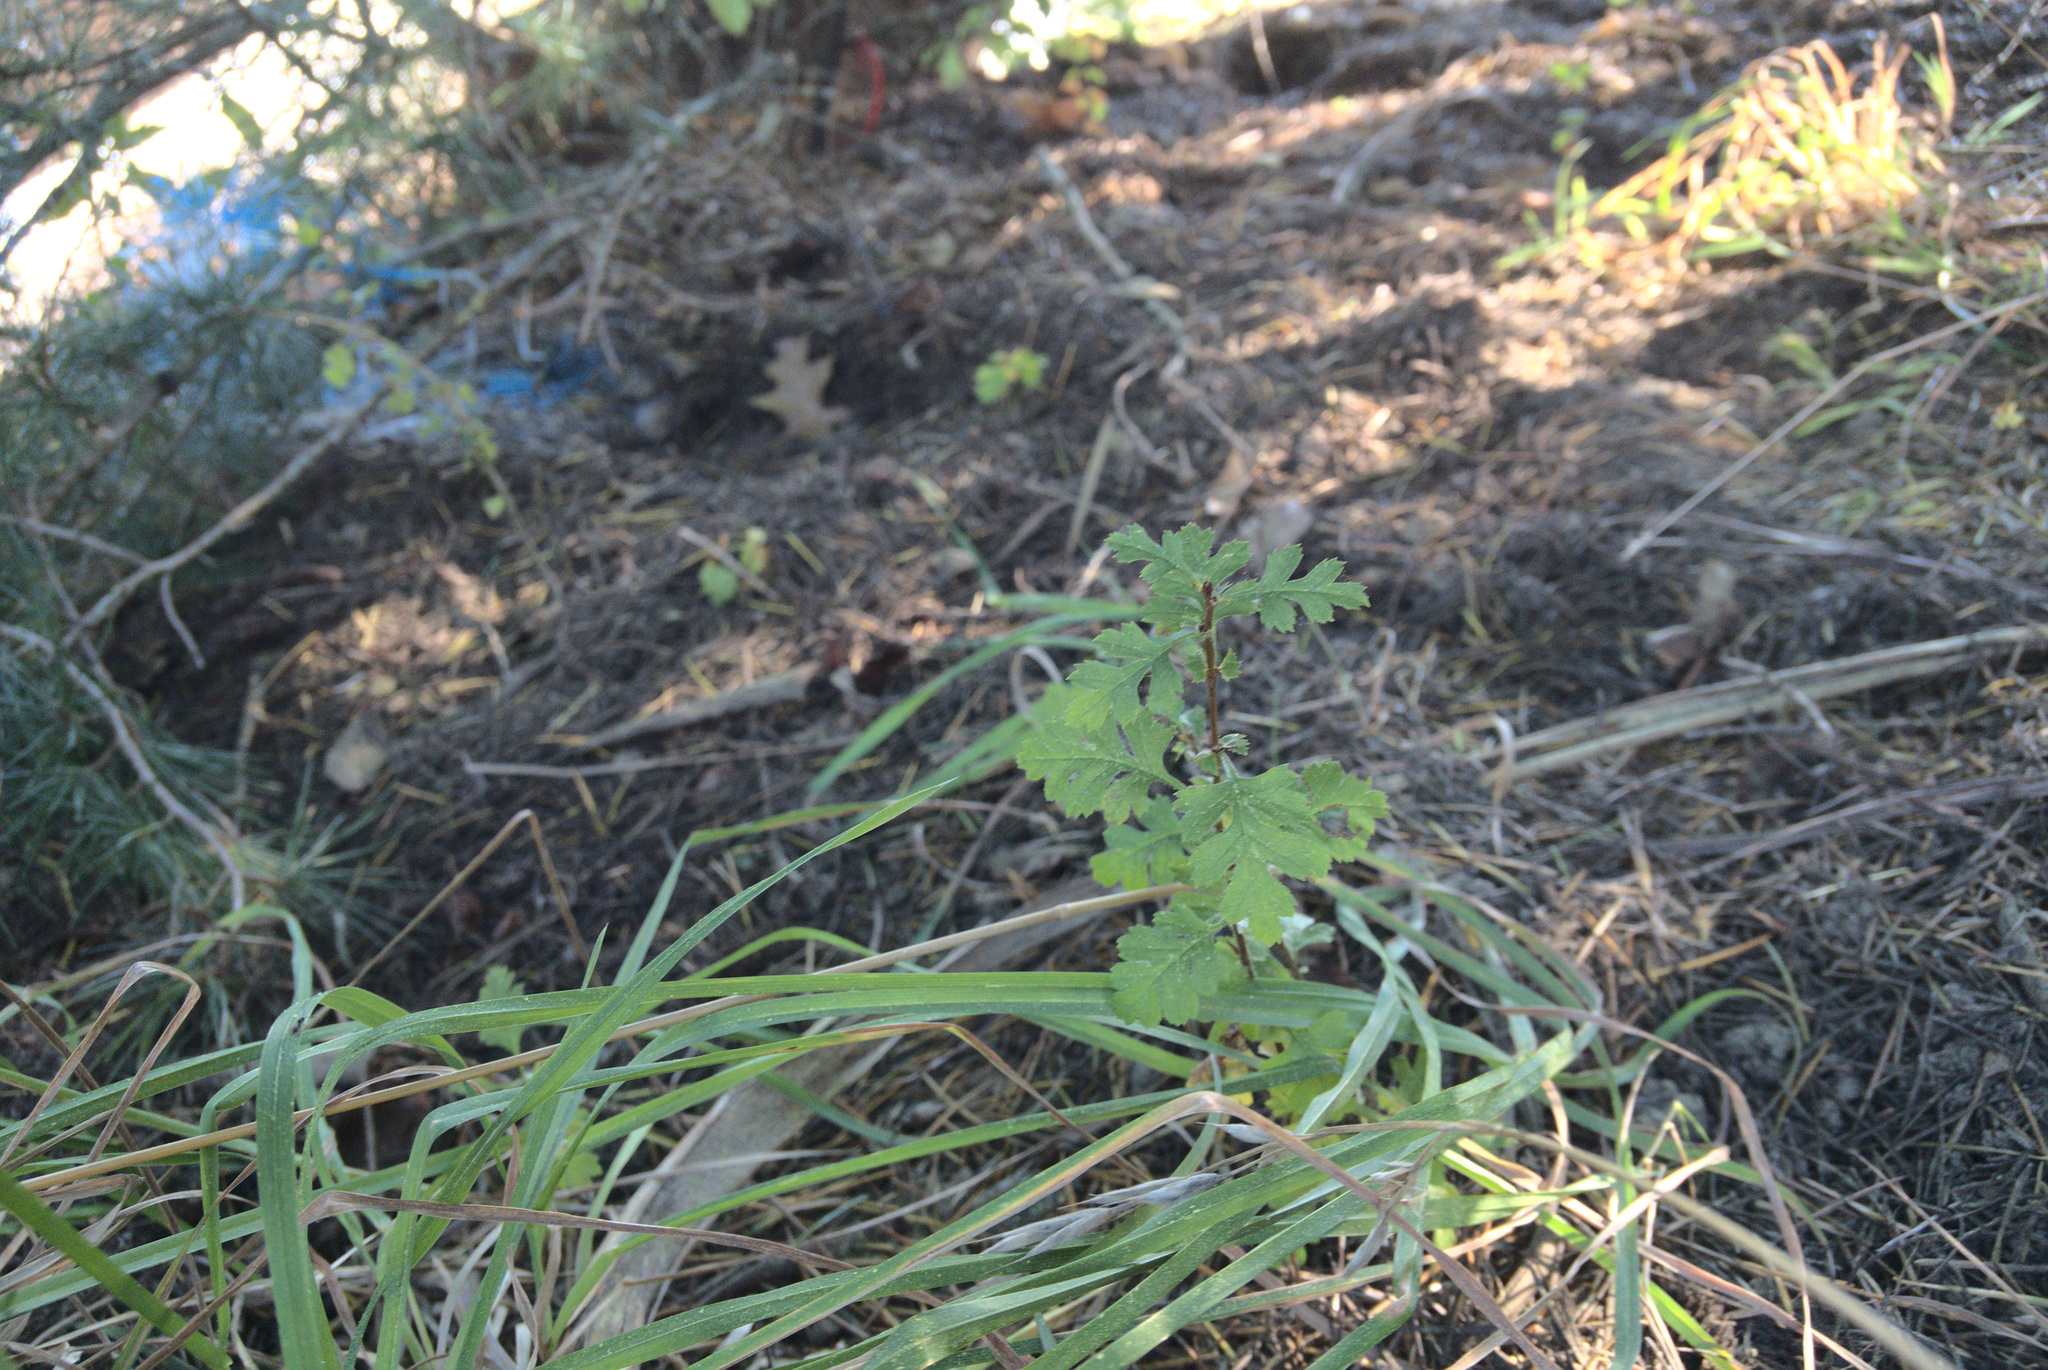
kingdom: Plantae
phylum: Tracheophyta
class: Magnoliopsida
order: Rosales
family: Rosaceae
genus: Crataegus
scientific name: Crataegus monogyna
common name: Hawthorn
